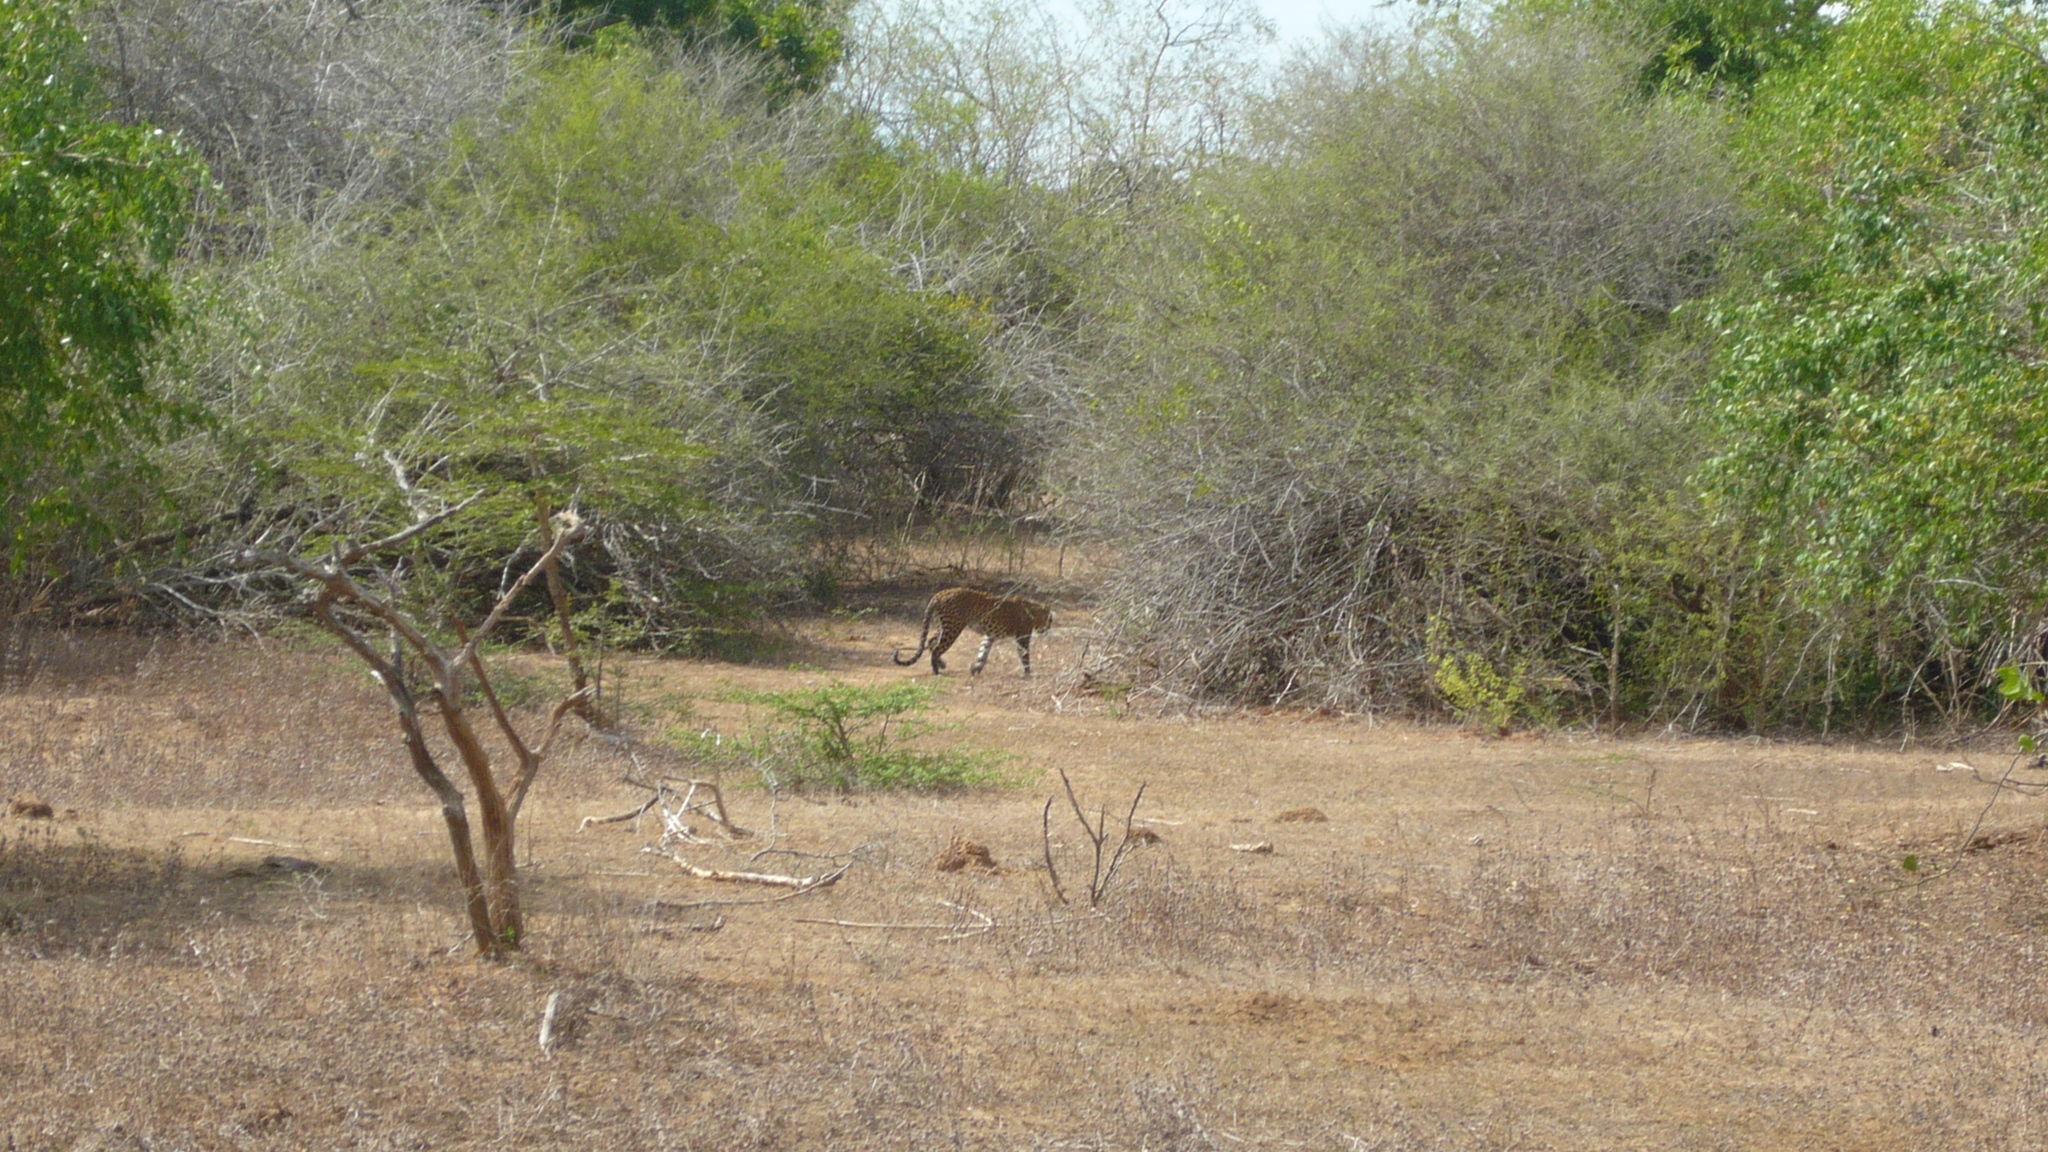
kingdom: Animalia
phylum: Chordata
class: Mammalia
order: Carnivora
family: Felidae
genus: Panthera
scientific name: Panthera pardus
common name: Leopard
